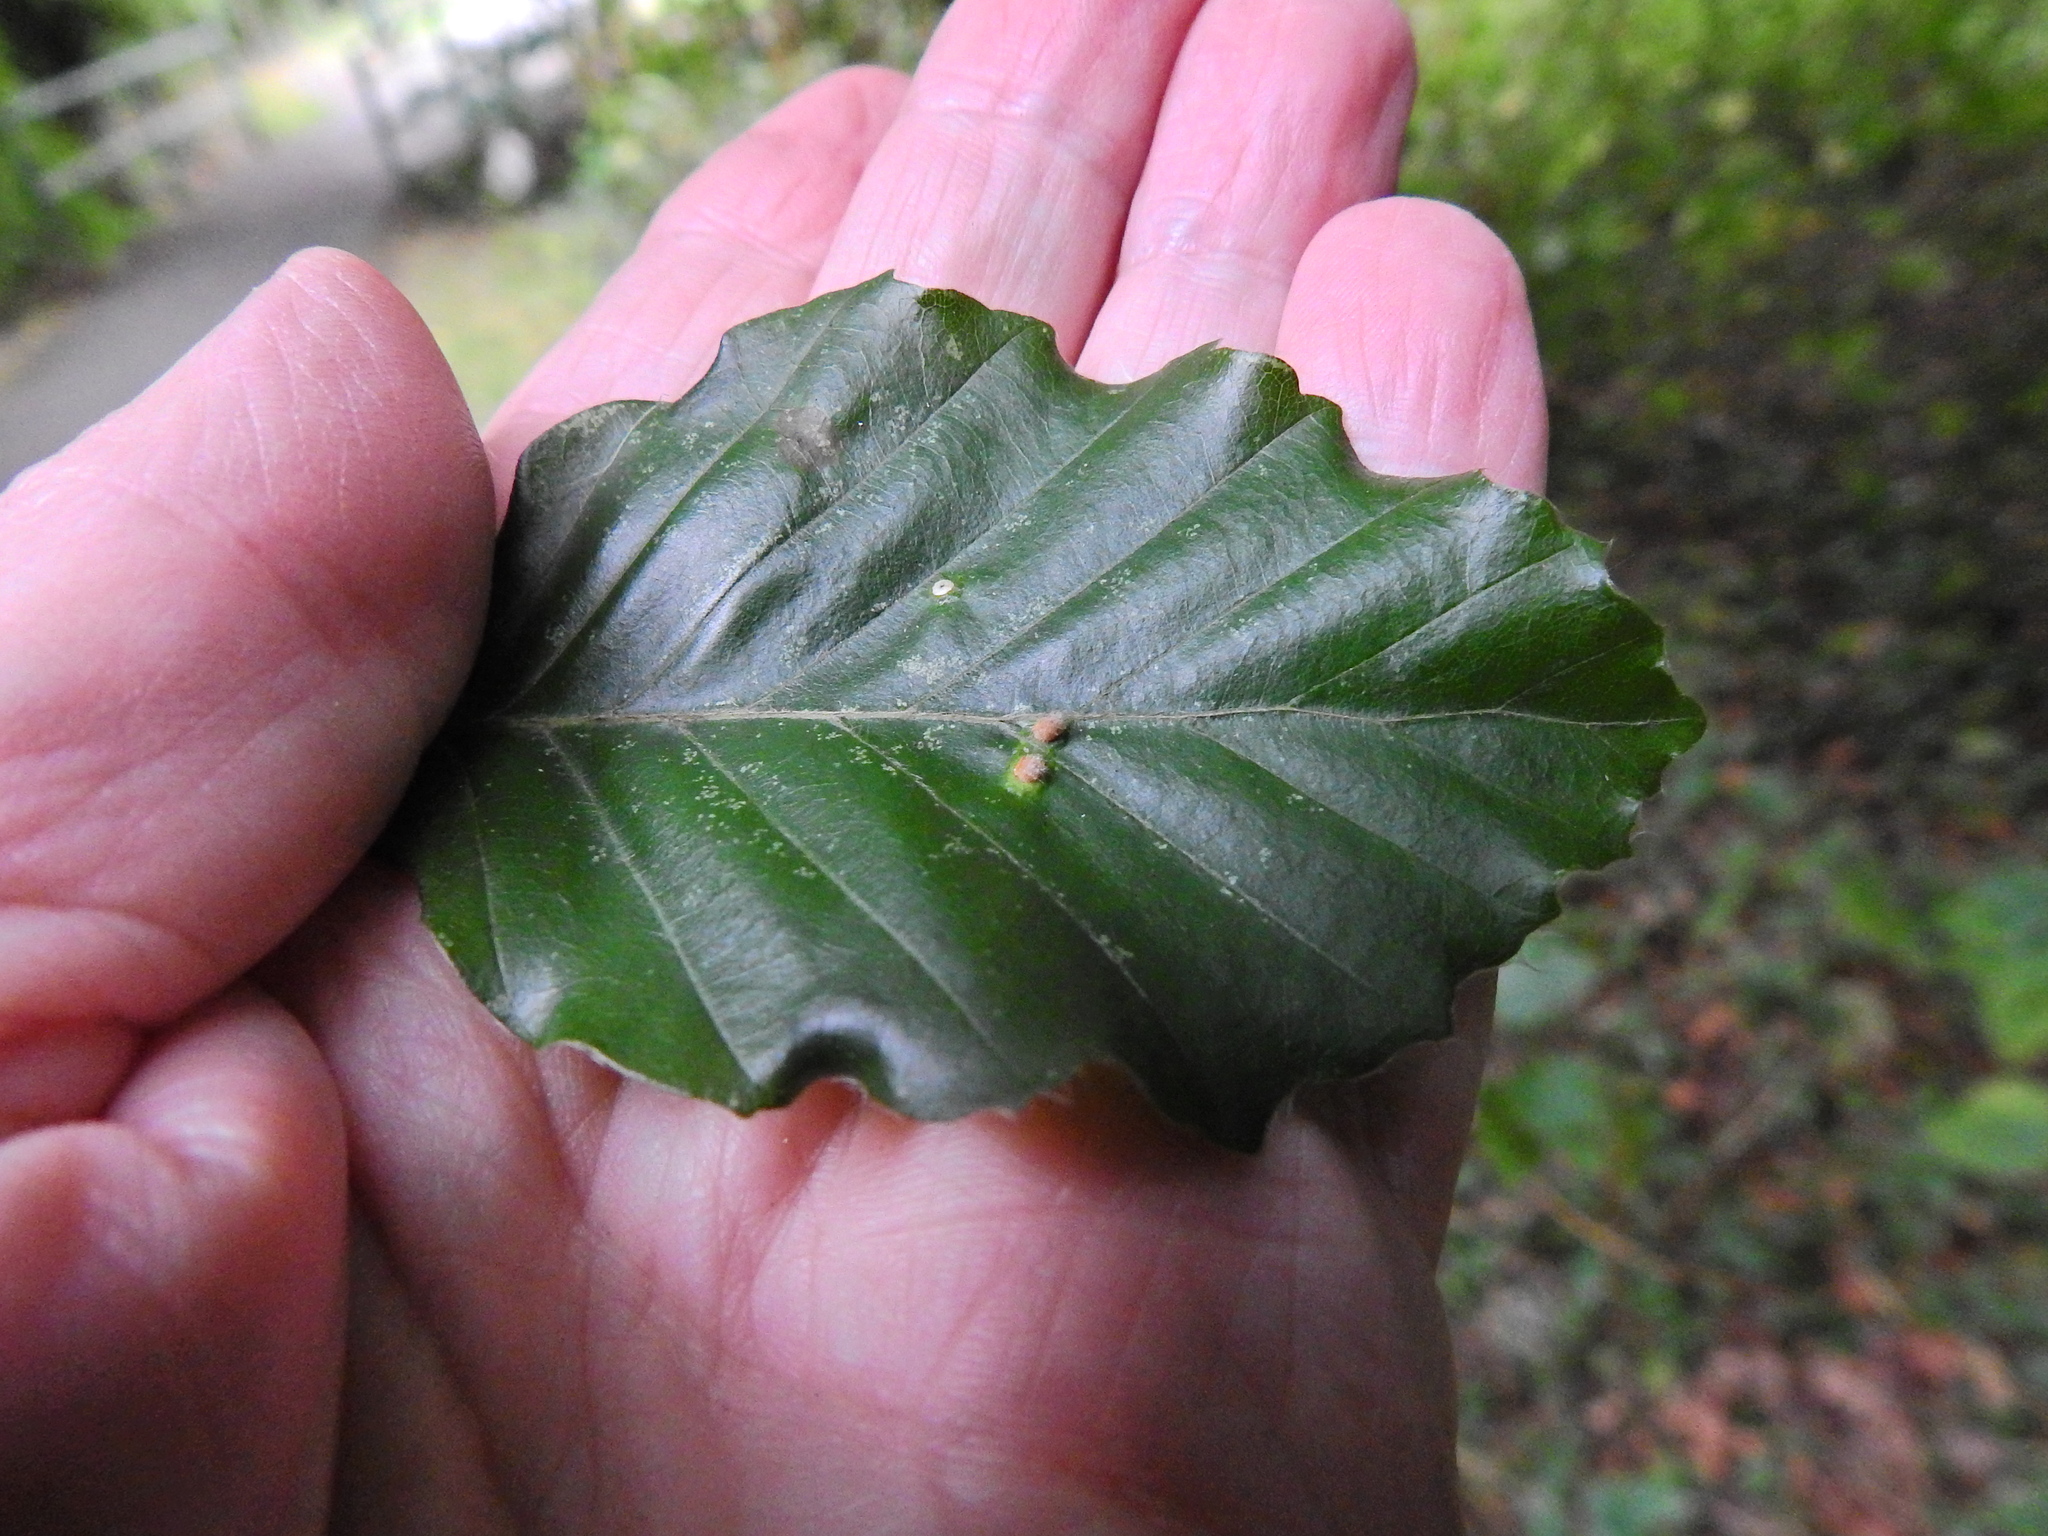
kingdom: Animalia
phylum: Arthropoda
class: Insecta
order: Diptera
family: Cecidomyiidae
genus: Hartigiola
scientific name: Hartigiola annulipes
